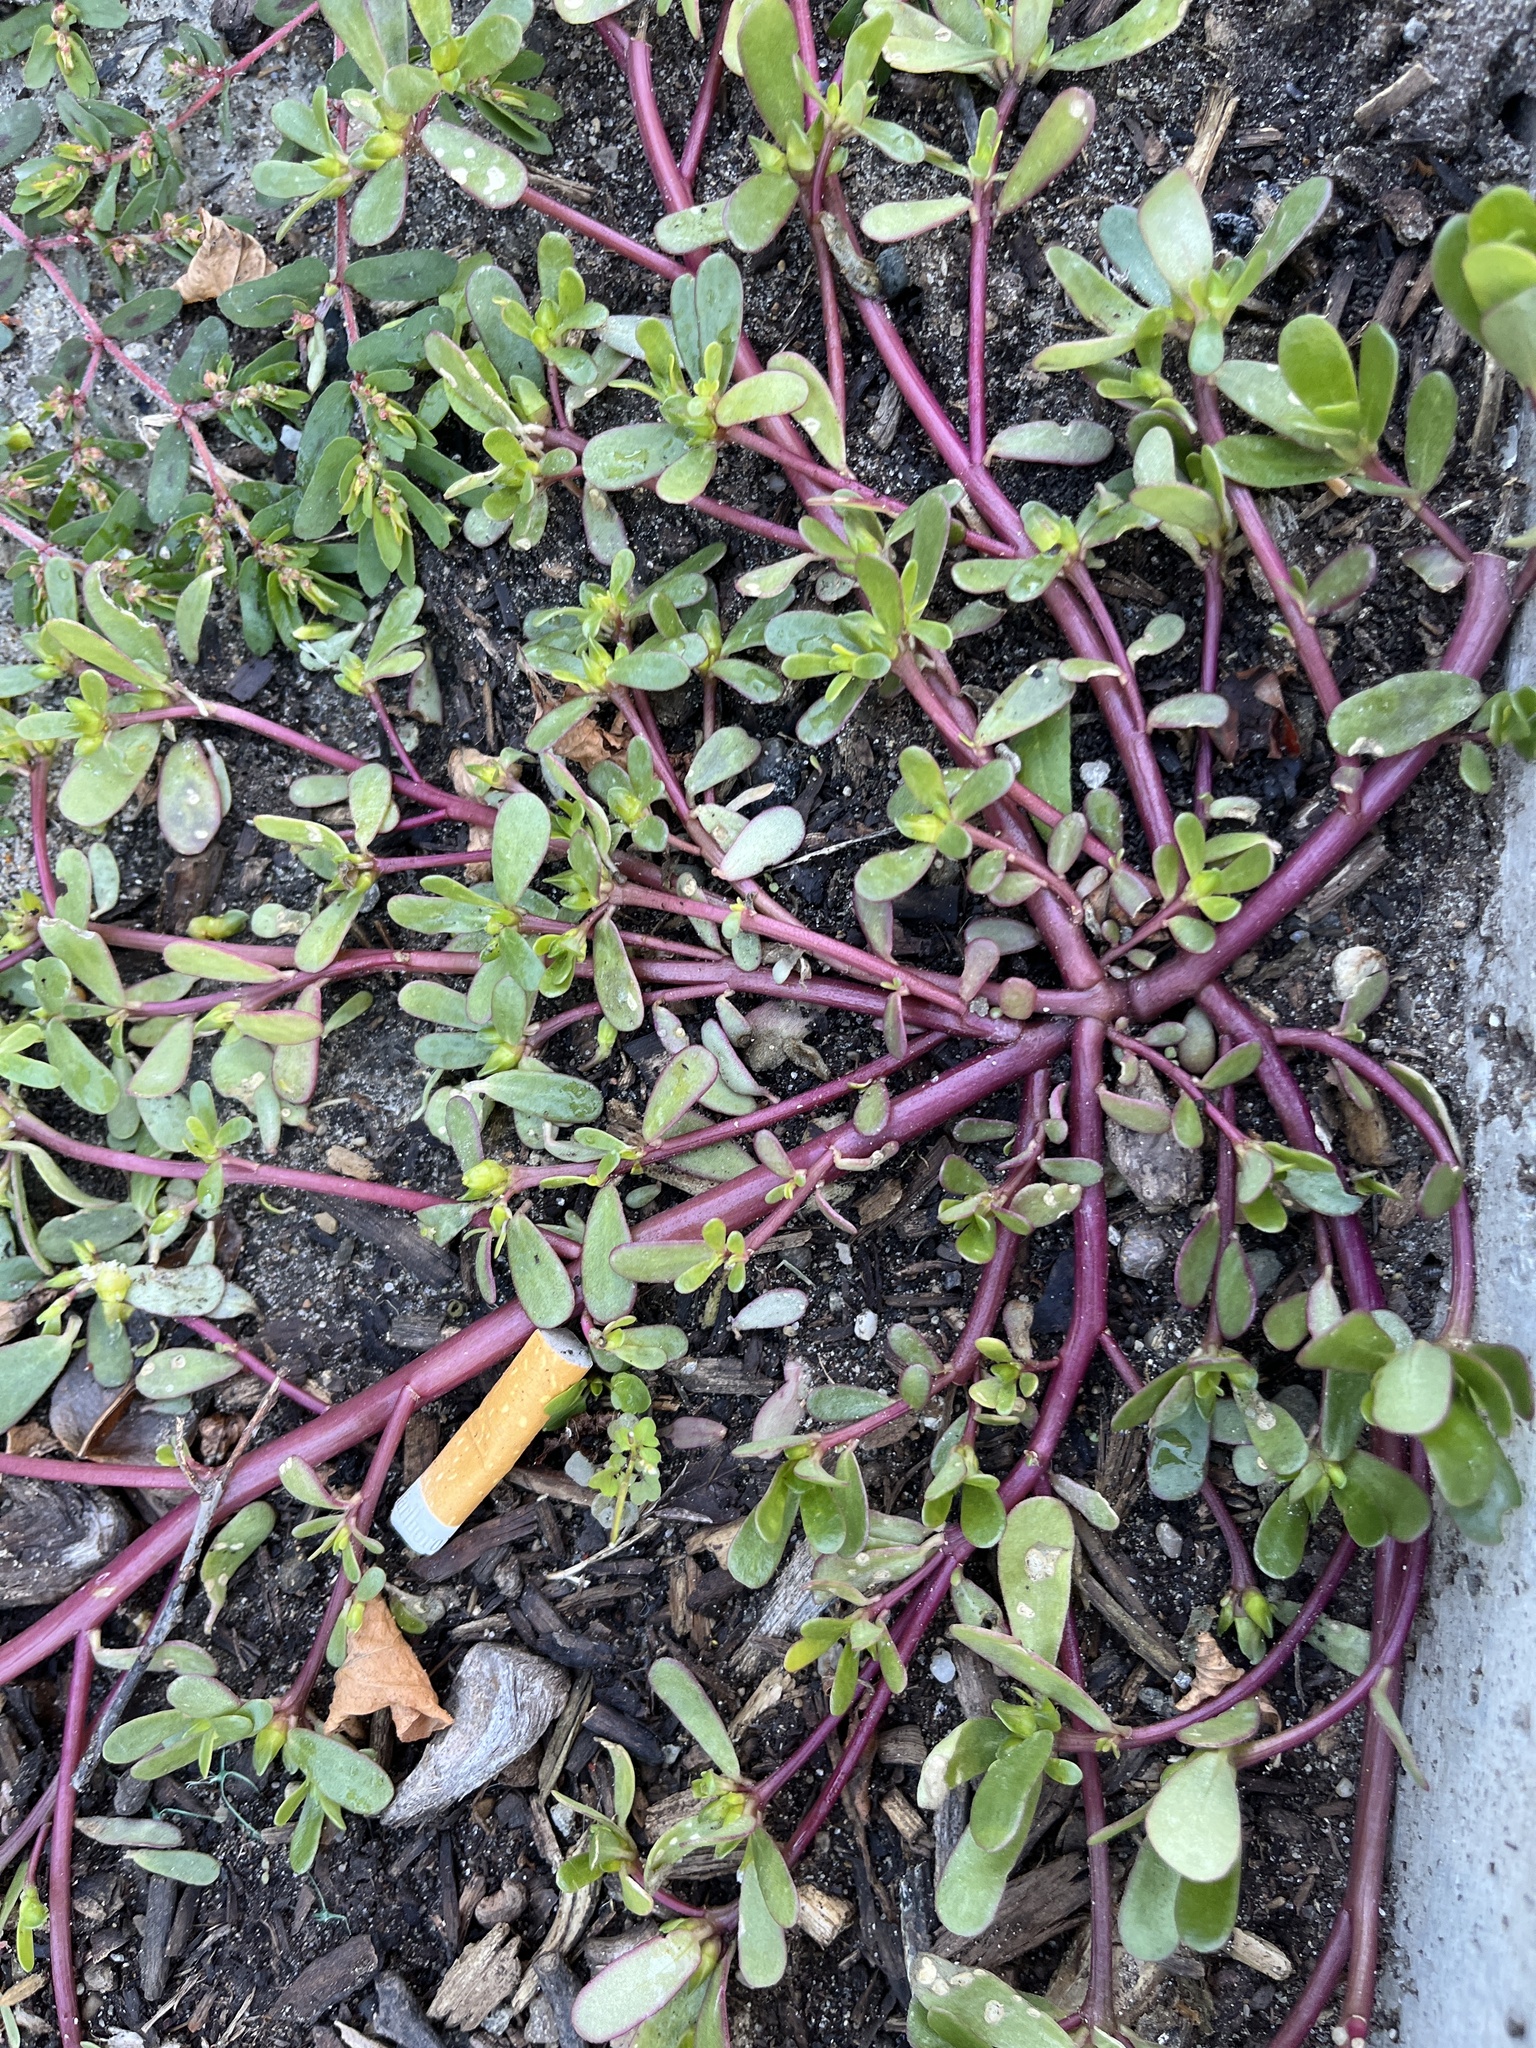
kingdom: Plantae
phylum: Tracheophyta
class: Magnoliopsida
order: Caryophyllales
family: Portulacaceae
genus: Portulaca
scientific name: Portulaca oleracea
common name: Common purslane
